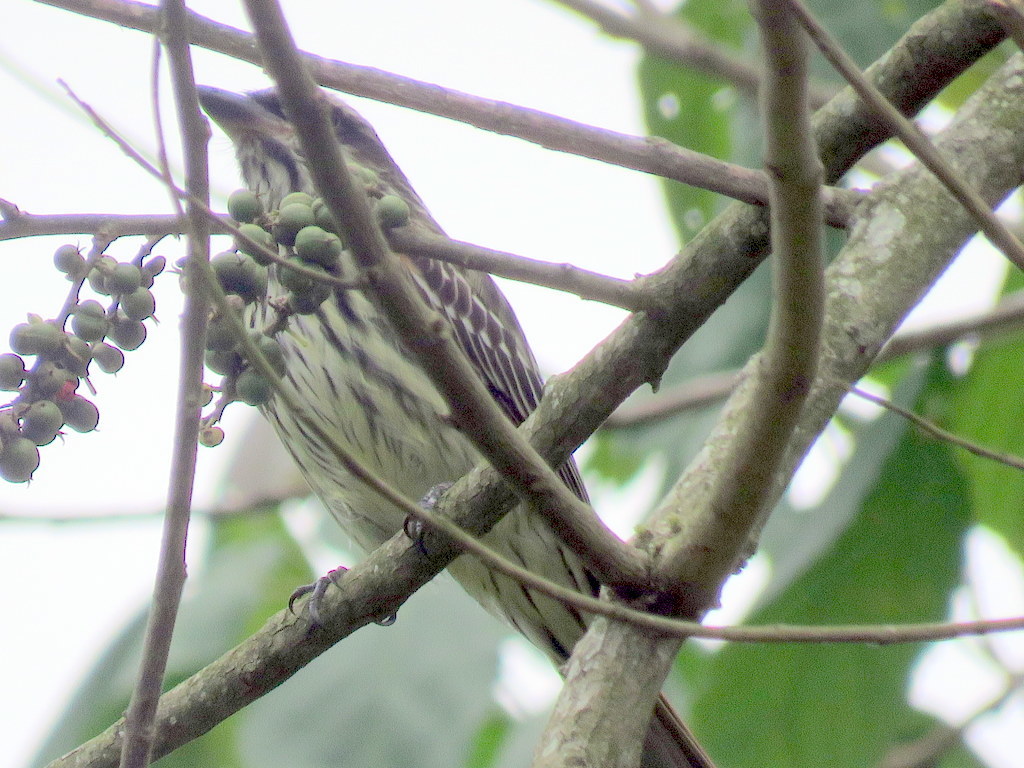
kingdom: Animalia
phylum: Chordata
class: Aves
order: Passeriformes
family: Tyrannidae
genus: Myiodynastes
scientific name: Myiodynastes maculatus
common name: Streaked flycatcher
